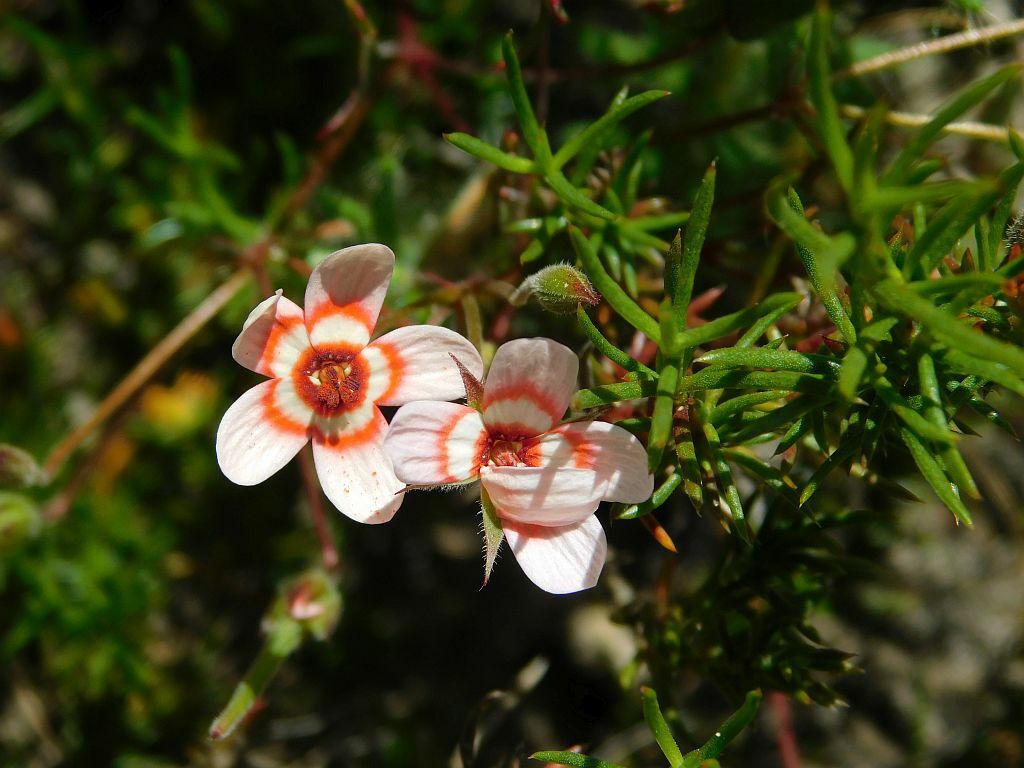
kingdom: Plantae
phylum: Tracheophyta
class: Magnoliopsida
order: Geraniales
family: Geraniaceae
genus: Pelargonium
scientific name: Pelargonium incarnatum
